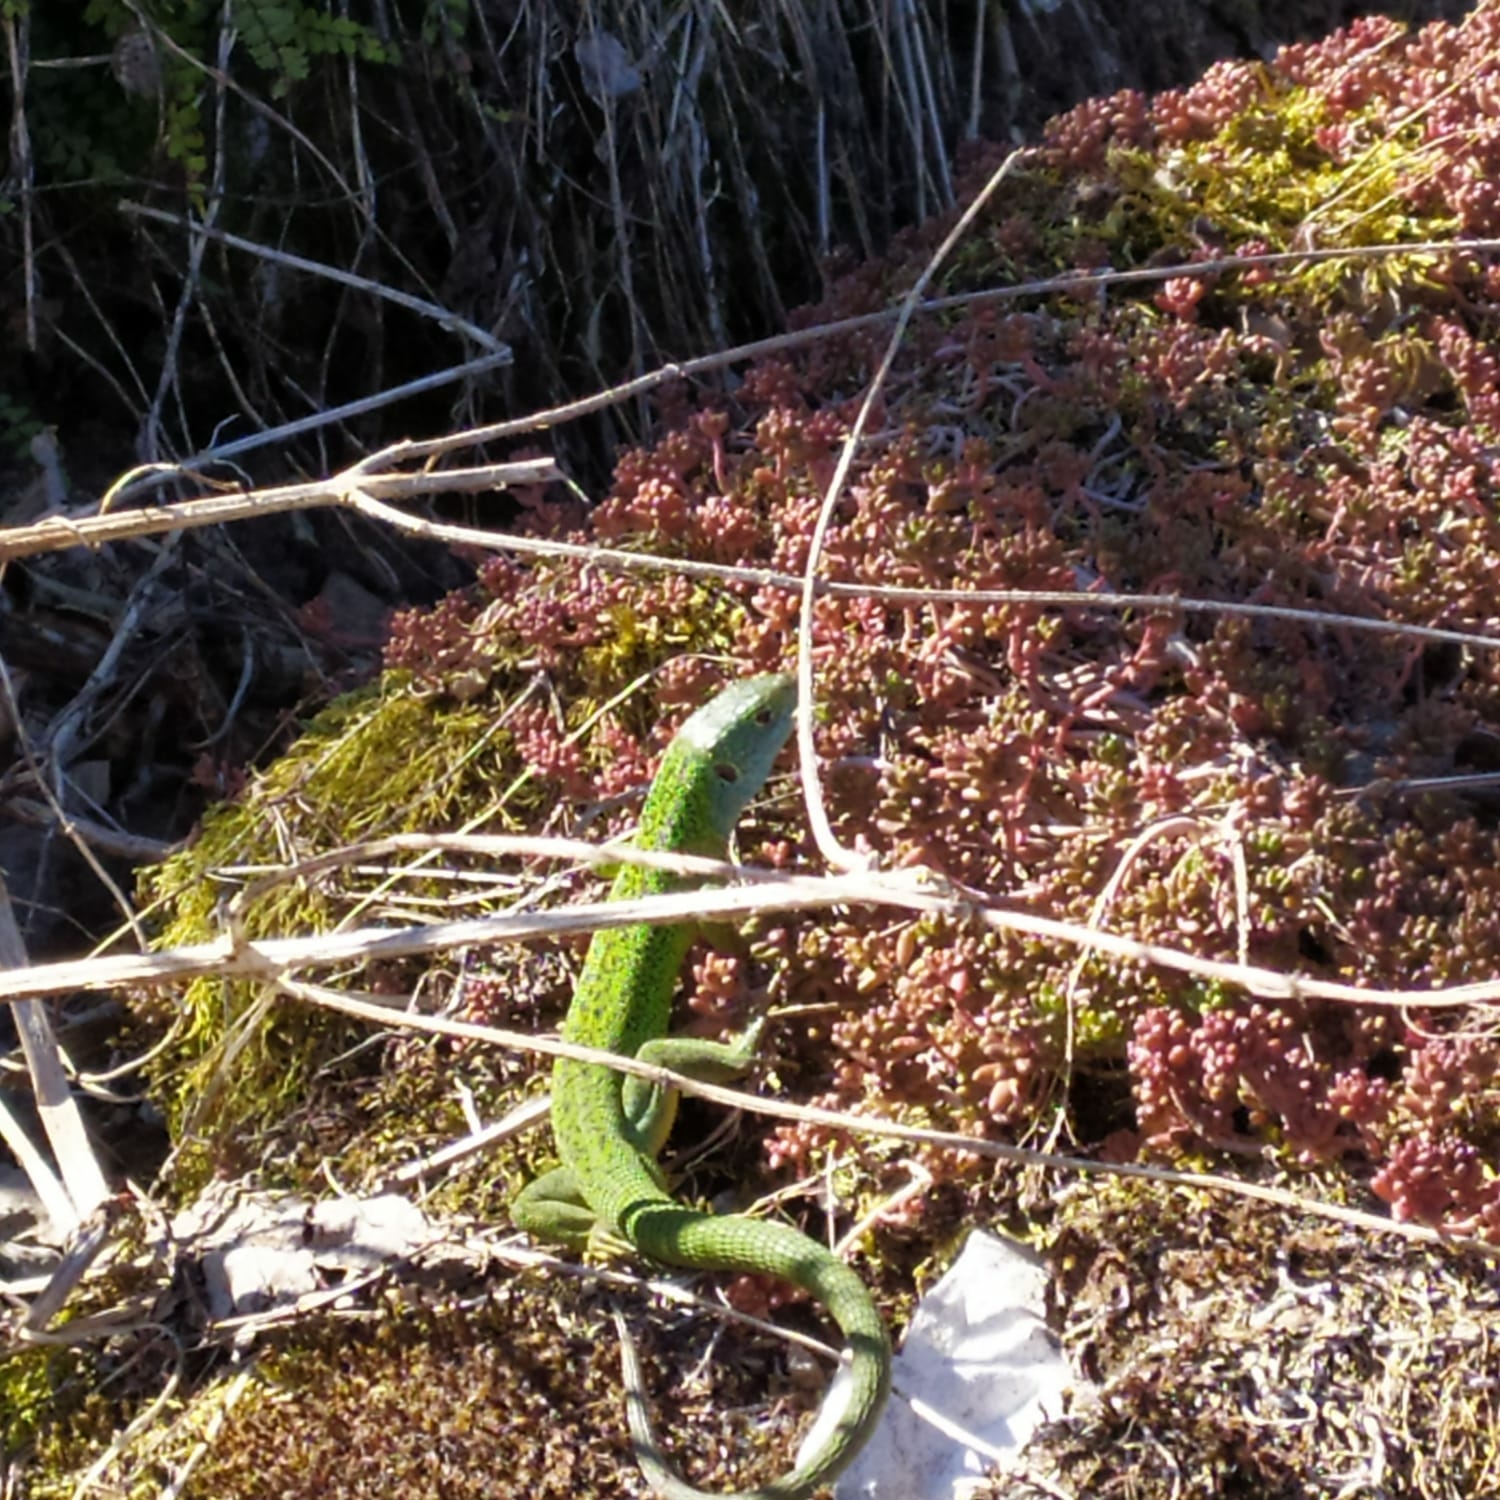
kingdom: Animalia
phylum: Chordata
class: Squamata
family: Lacertidae
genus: Lacerta
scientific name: Lacerta bilineata
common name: Western green lizard
